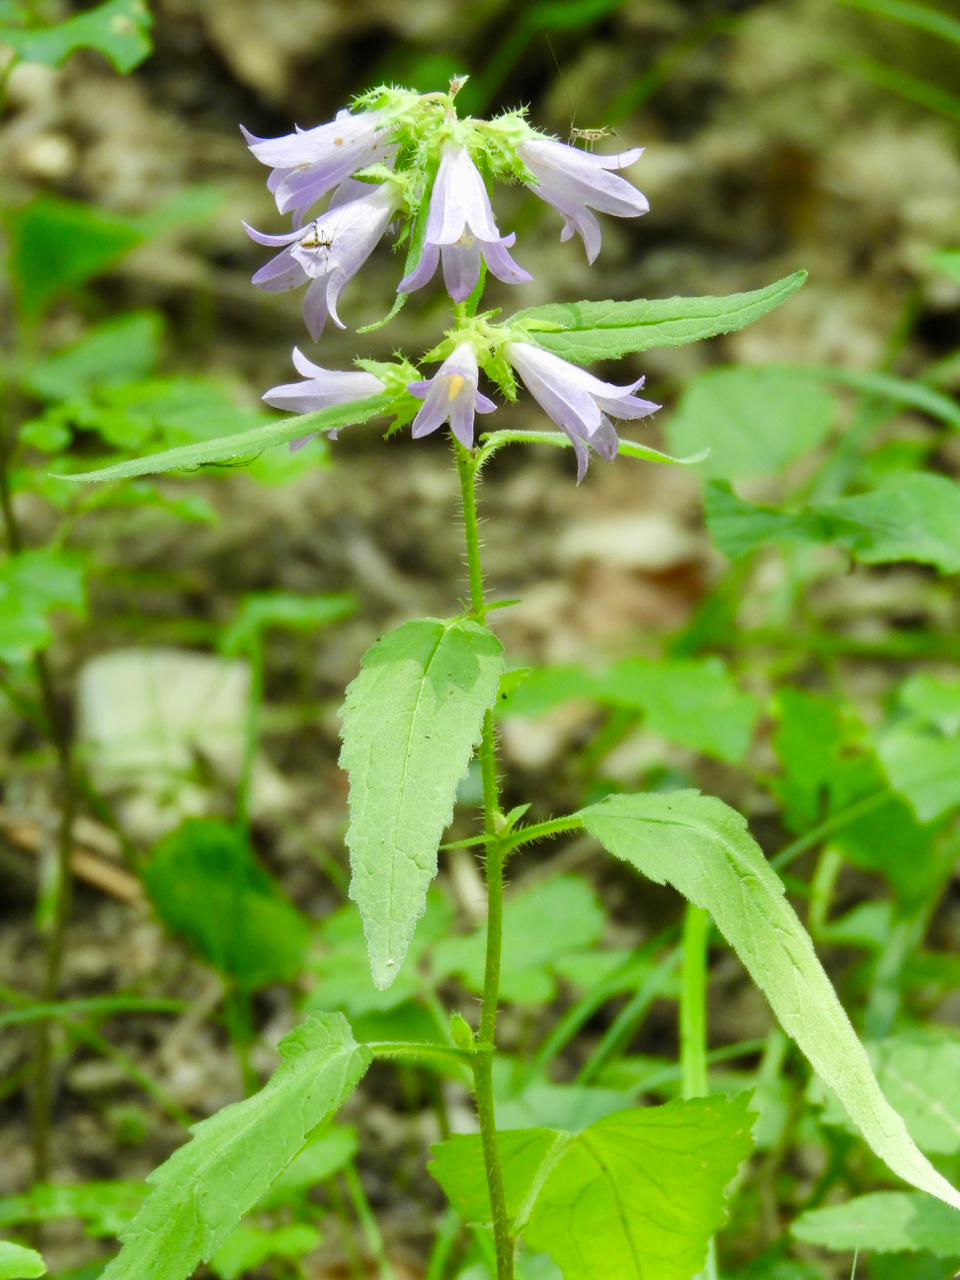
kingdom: Plantae
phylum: Tracheophyta
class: Magnoliopsida
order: Asterales
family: Campanulaceae
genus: Campanula
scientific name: Campanula trachelium
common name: Nettle-leaved bellflower
